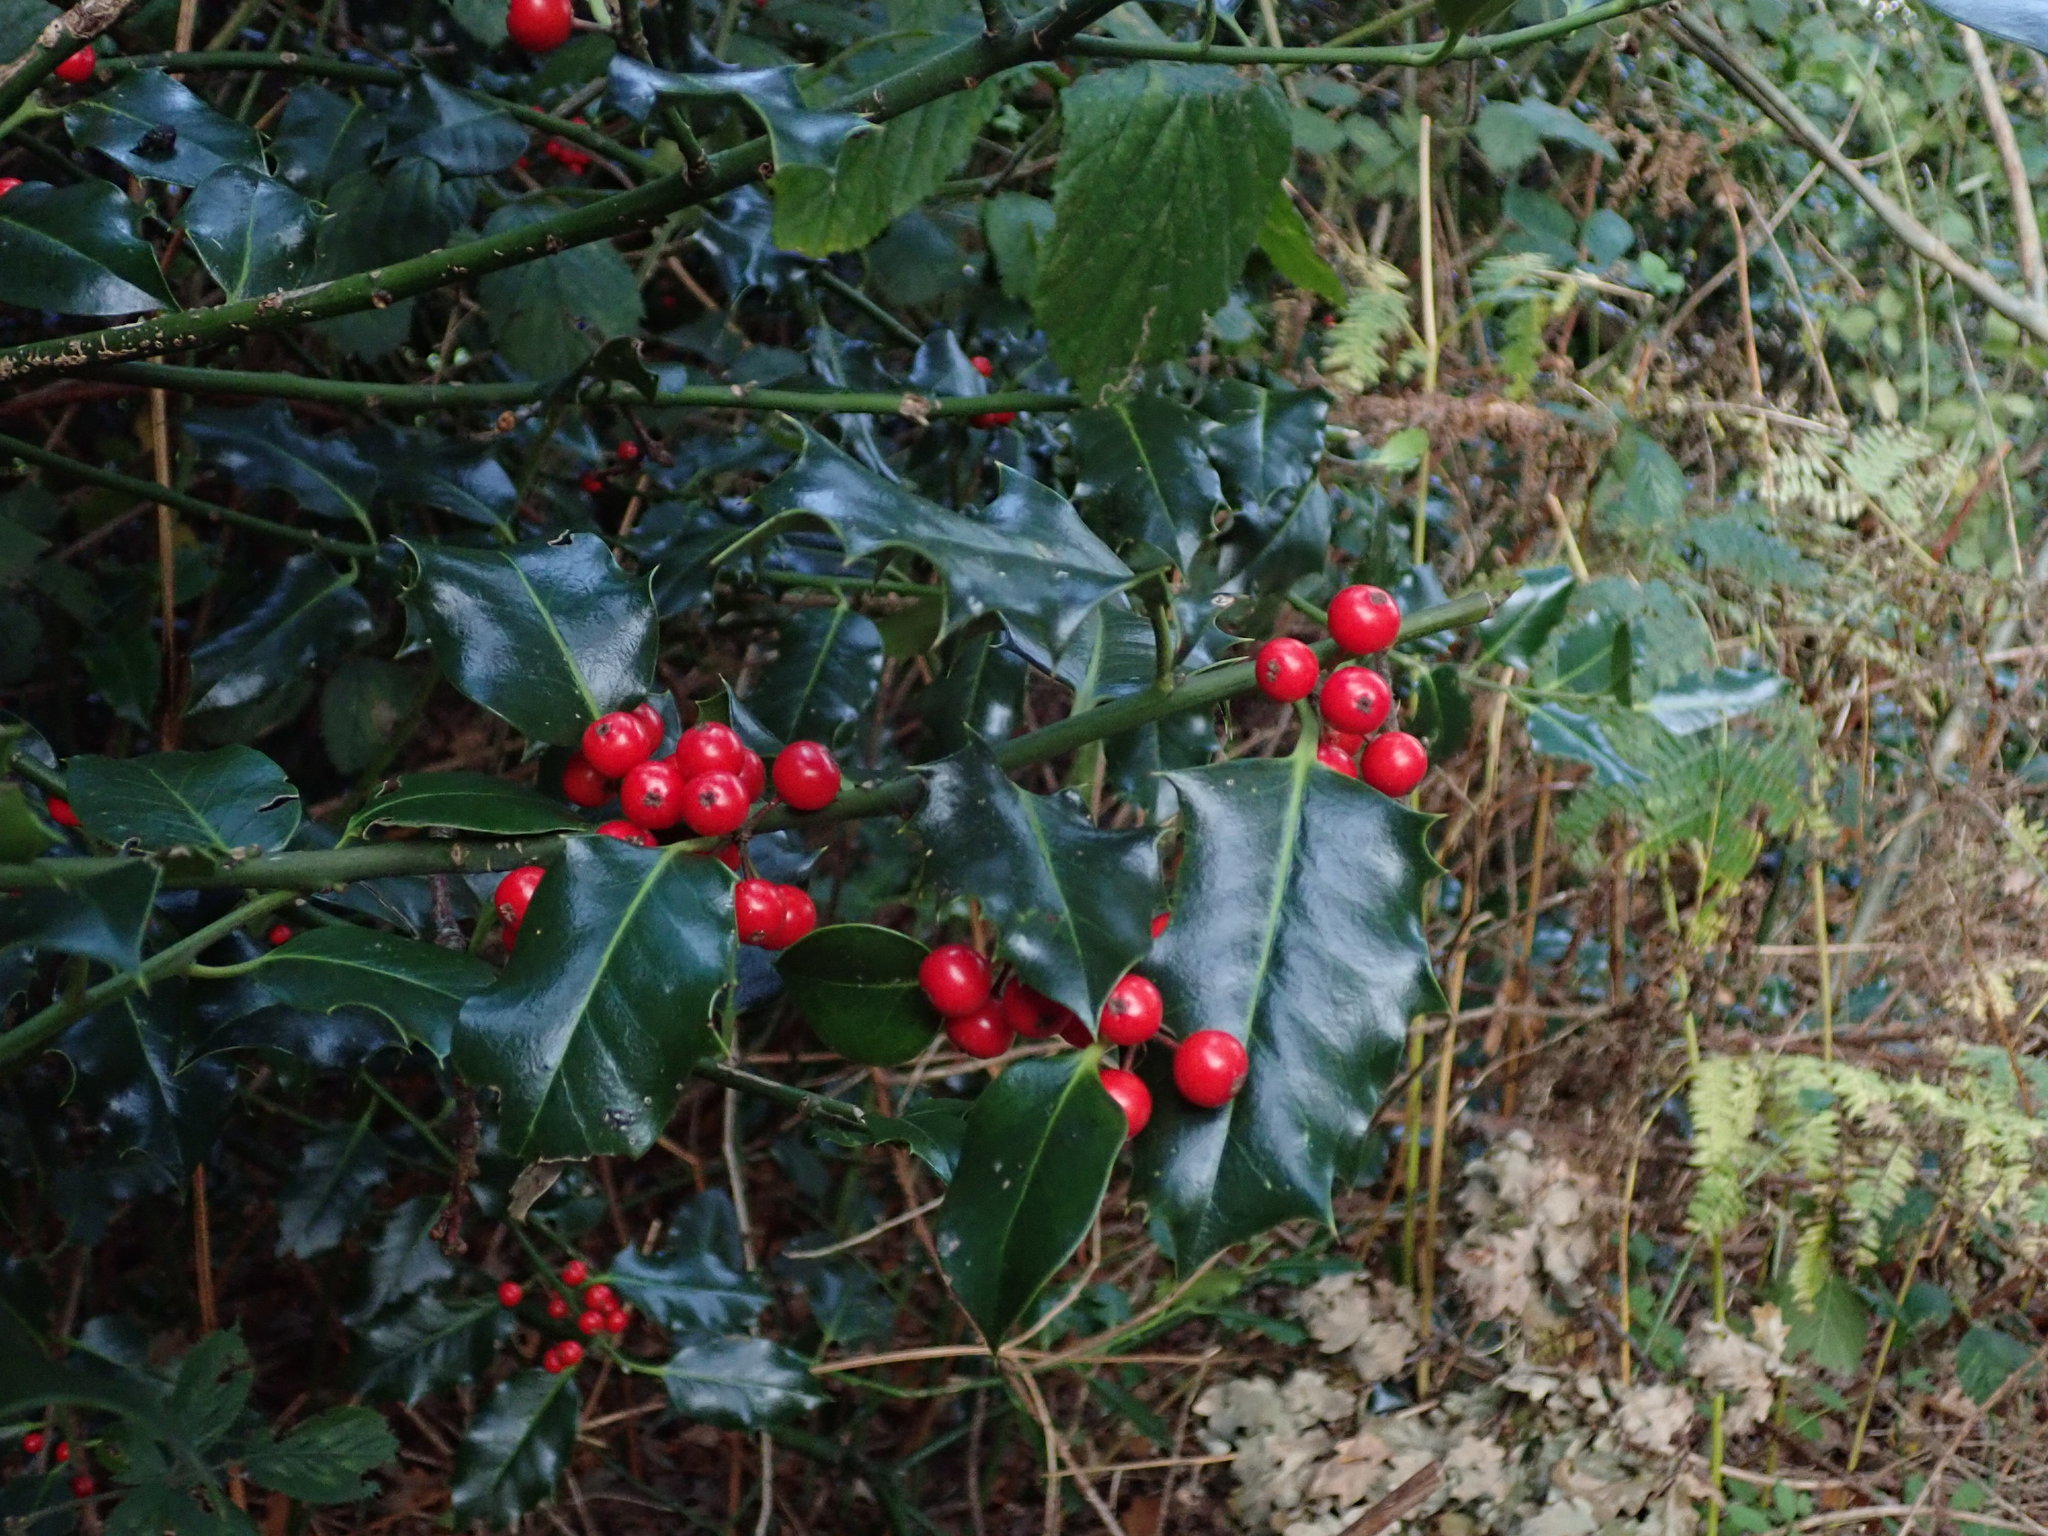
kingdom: Plantae
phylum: Tracheophyta
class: Magnoliopsida
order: Aquifoliales
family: Aquifoliaceae
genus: Ilex
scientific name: Ilex aquifolium
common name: English holly
